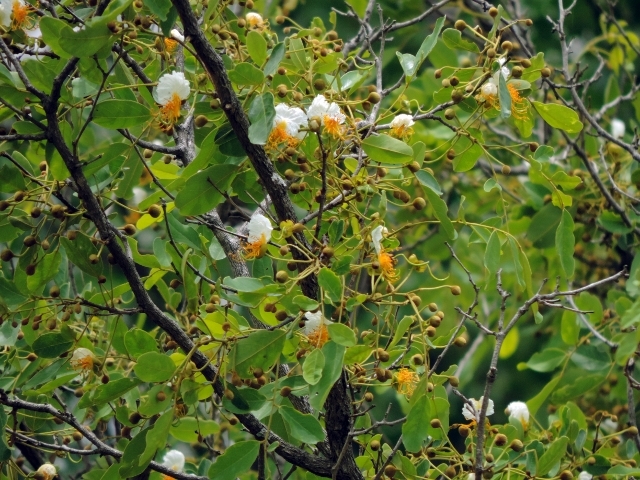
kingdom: Plantae
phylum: Tracheophyta
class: Magnoliopsida
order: Fabales
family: Fabaceae
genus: Bobgunnia
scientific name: Bobgunnia madagascariensis
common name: Snake bean plant
